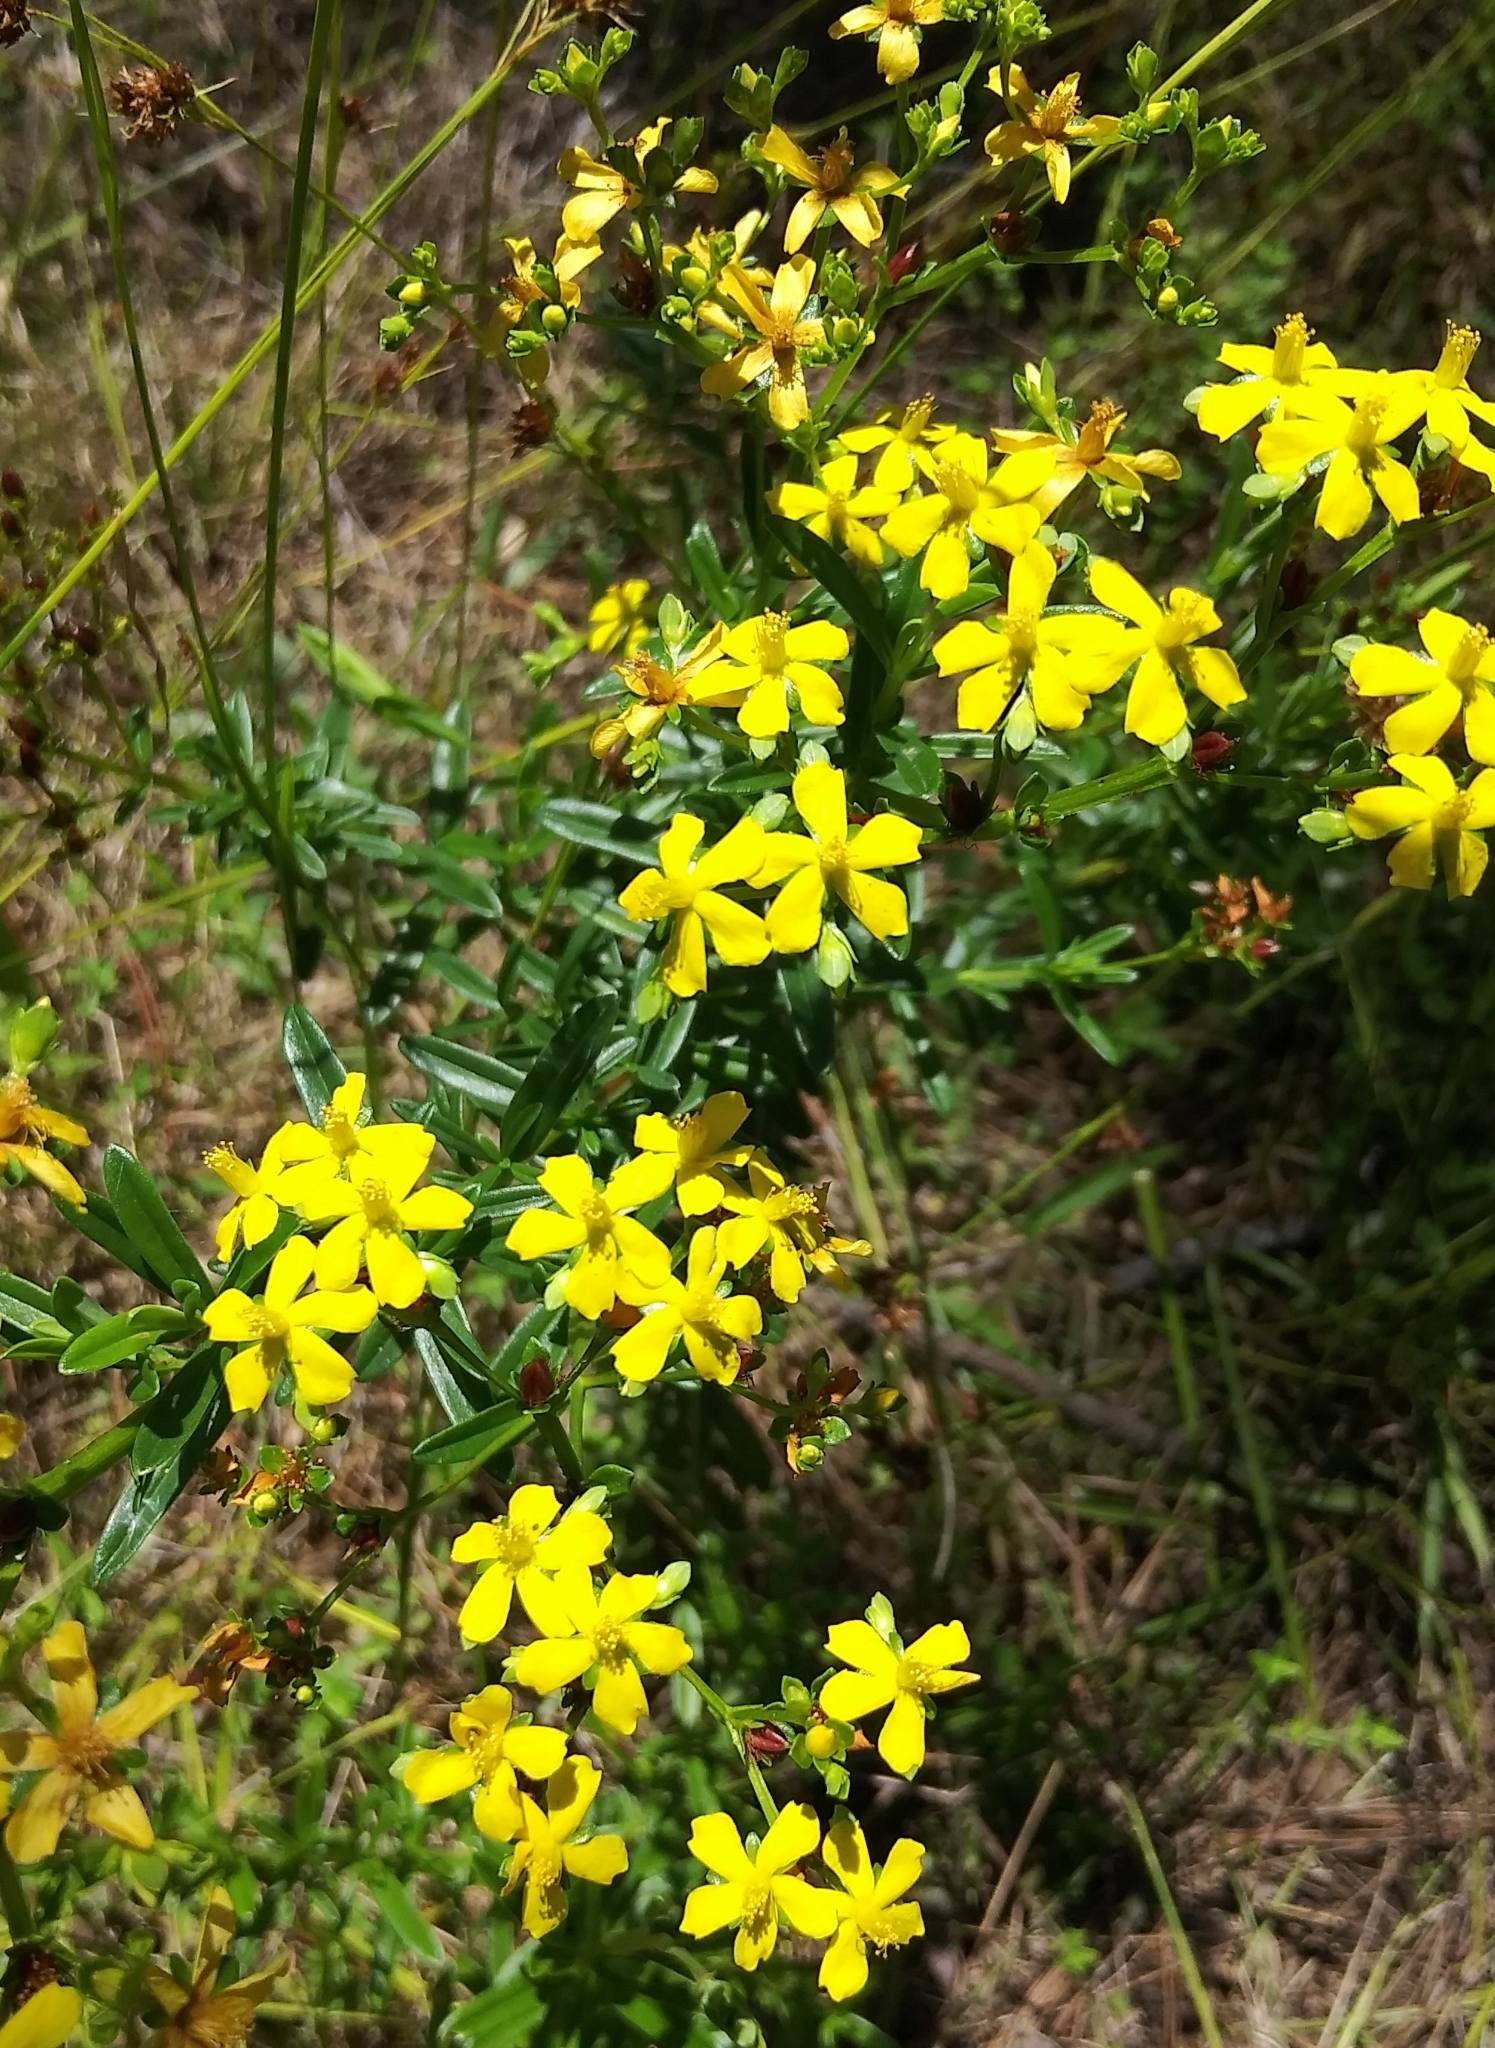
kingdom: Plantae
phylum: Tracheophyta
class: Magnoliopsida
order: Malpighiales
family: Hypericaceae
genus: Hypericum
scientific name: Hypericum cistifolium
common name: Round-pod st. john's-wort
